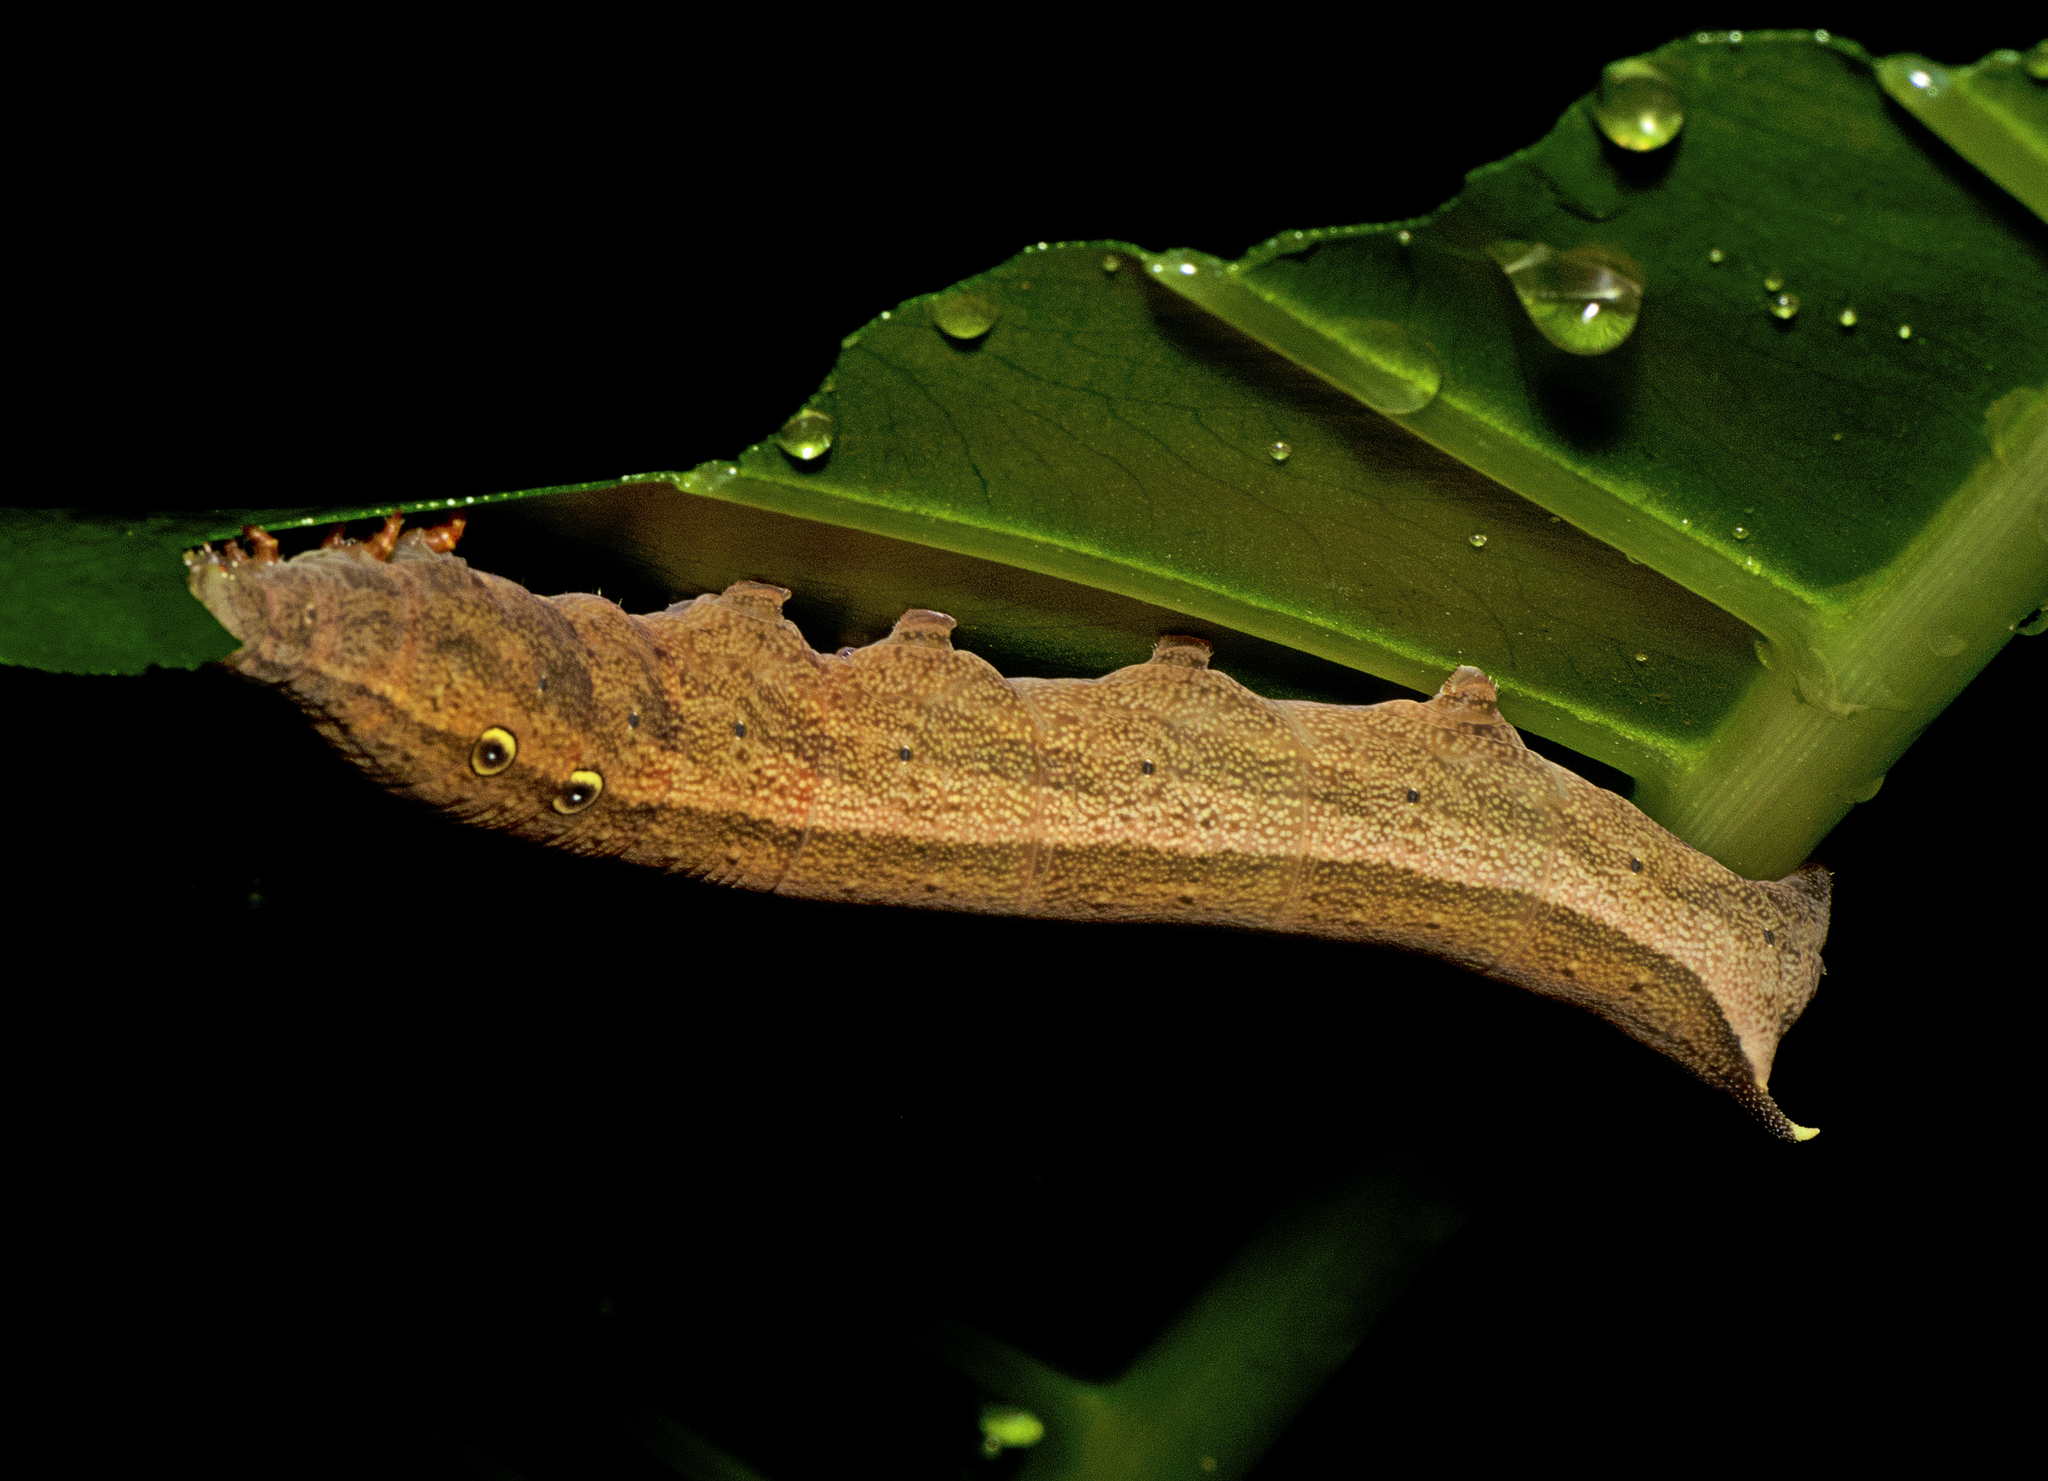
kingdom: Animalia
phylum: Arthropoda
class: Insecta
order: Lepidoptera
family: Sphingidae
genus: Theretra
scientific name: Theretra tryoni
